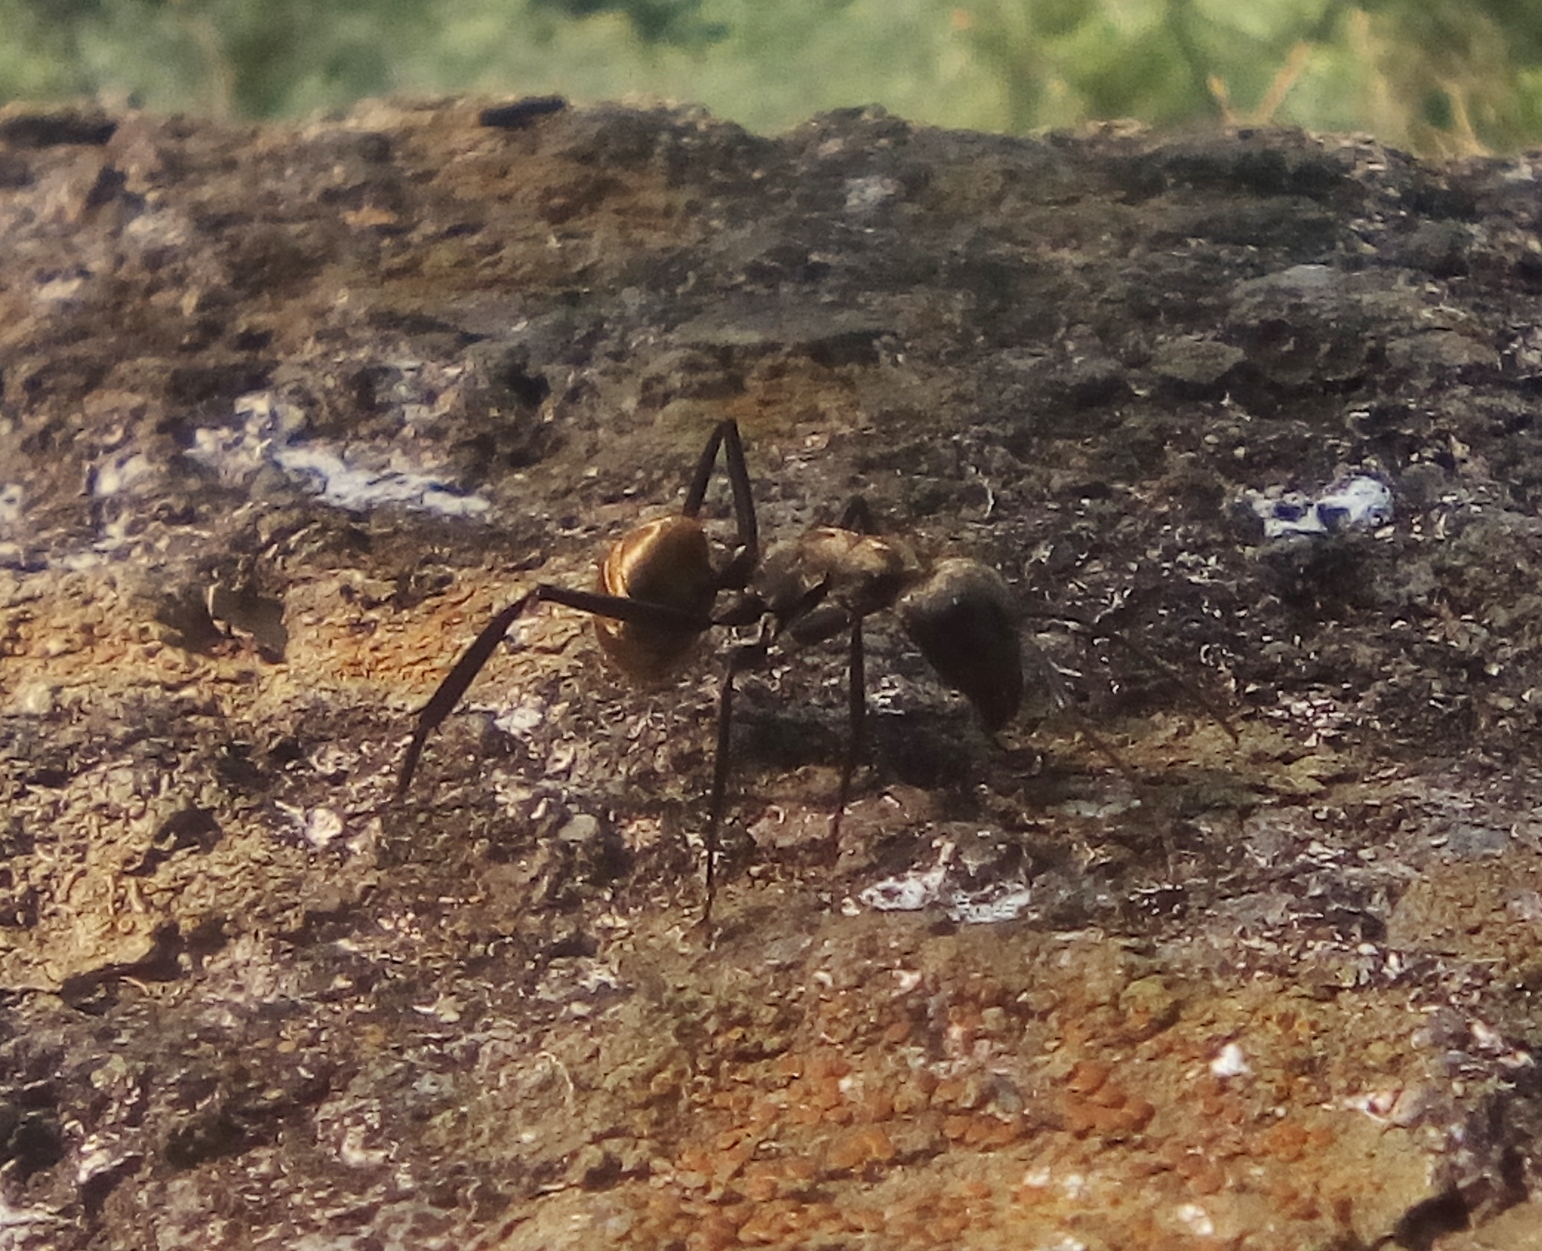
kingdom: Animalia
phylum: Arthropoda
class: Insecta
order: Hymenoptera
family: Formicidae
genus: Camponotus
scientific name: Camponotus sericeiventris
